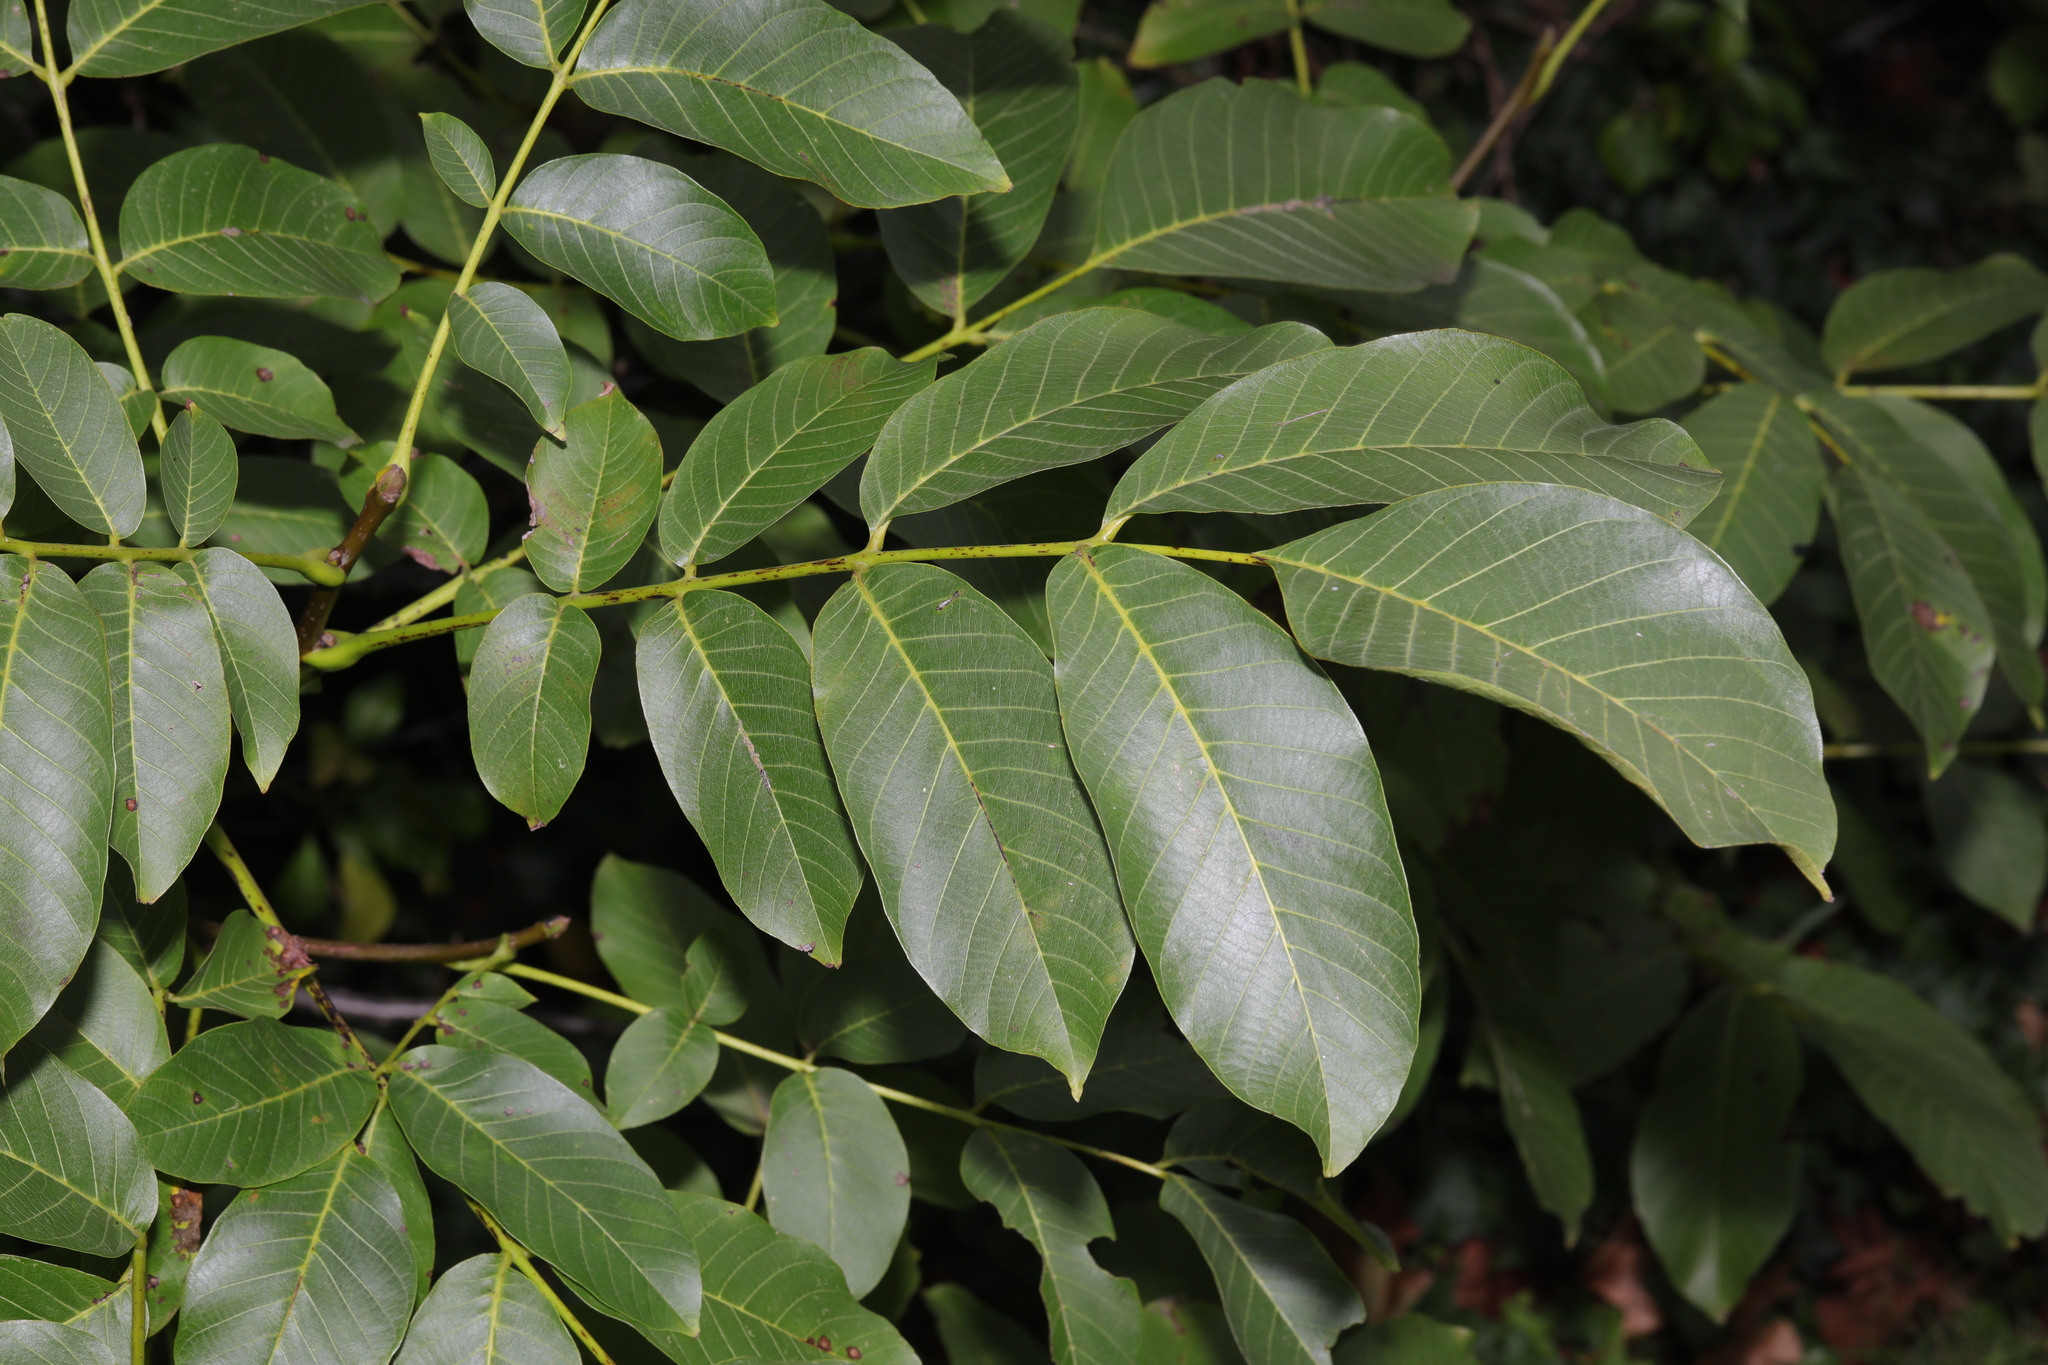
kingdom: Plantae
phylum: Tracheophyta
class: Magnoliopsida
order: Fagales
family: Juglandaceae
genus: Juglans
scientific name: Juglans regia
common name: Walnut
